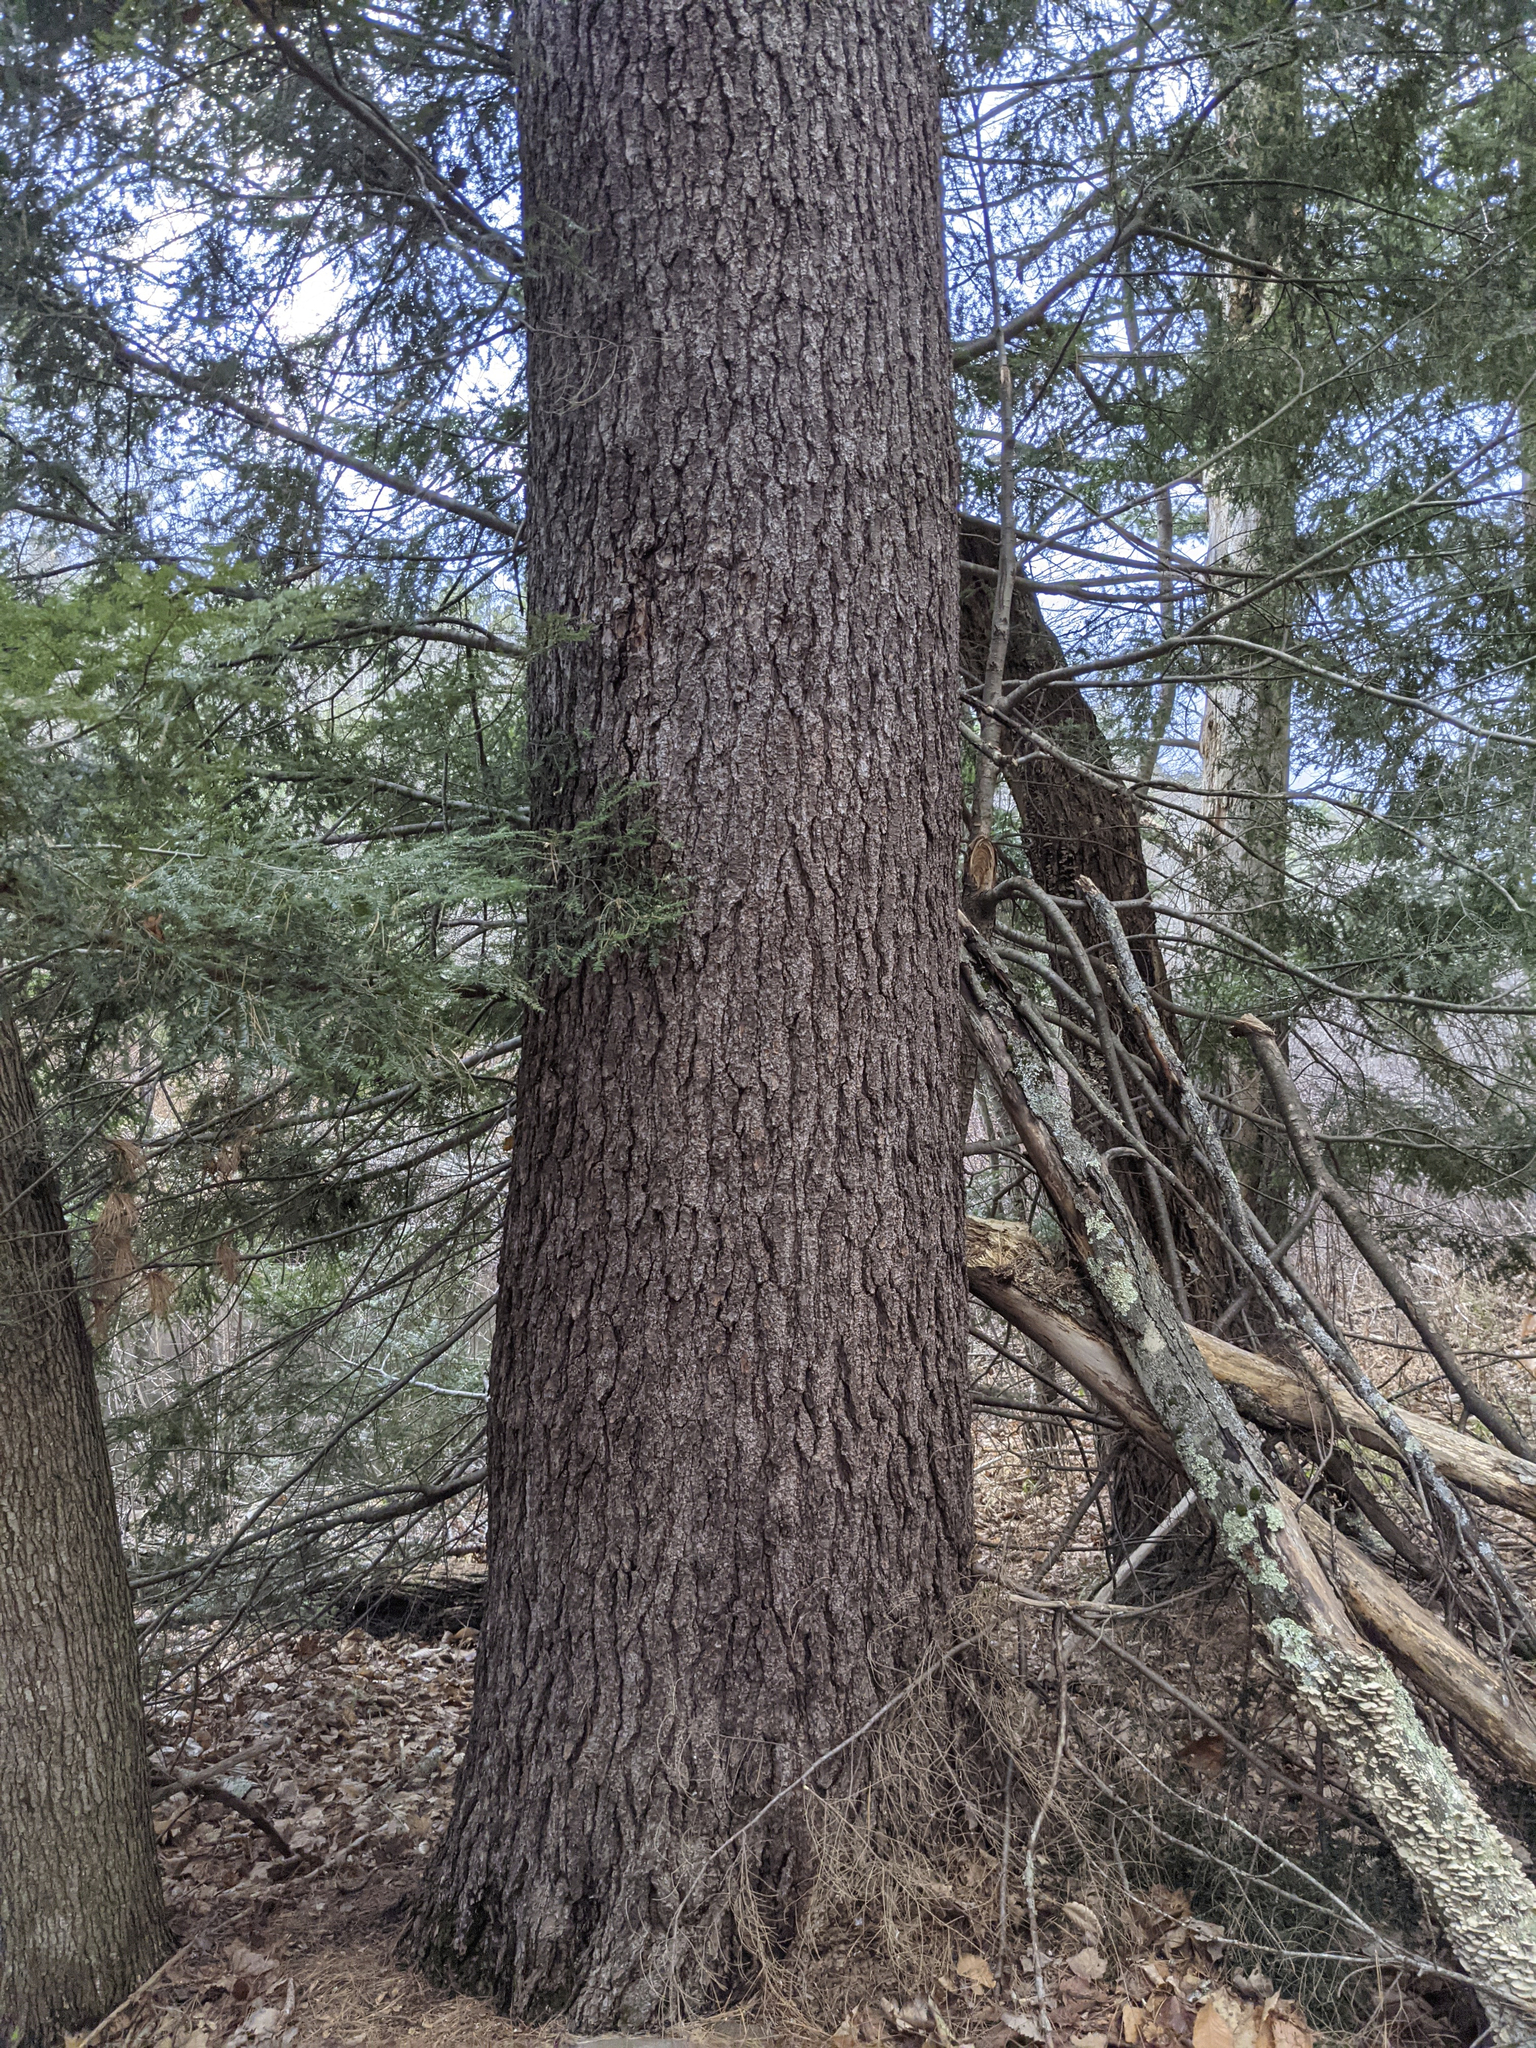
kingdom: Plantae
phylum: Tracheophyta
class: Pinopsida
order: Pinales
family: Pinaceae
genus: Pinus
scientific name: Pinus strobus
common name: Weymouth pine
